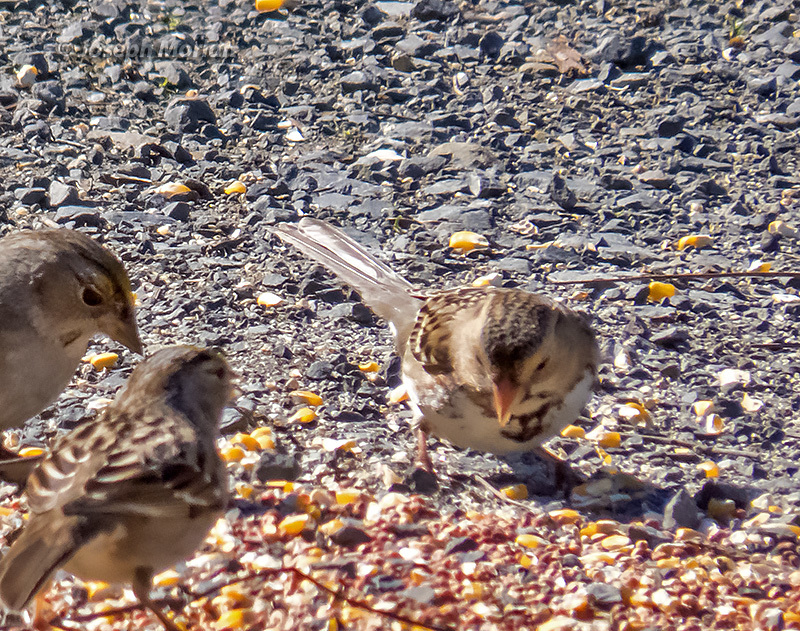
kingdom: Animalia
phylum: Chordata
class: Aves
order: Passeriformes
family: Passerellidae
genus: Zonotrichia
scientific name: Zonotrichia querula
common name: Harris's sparrow
